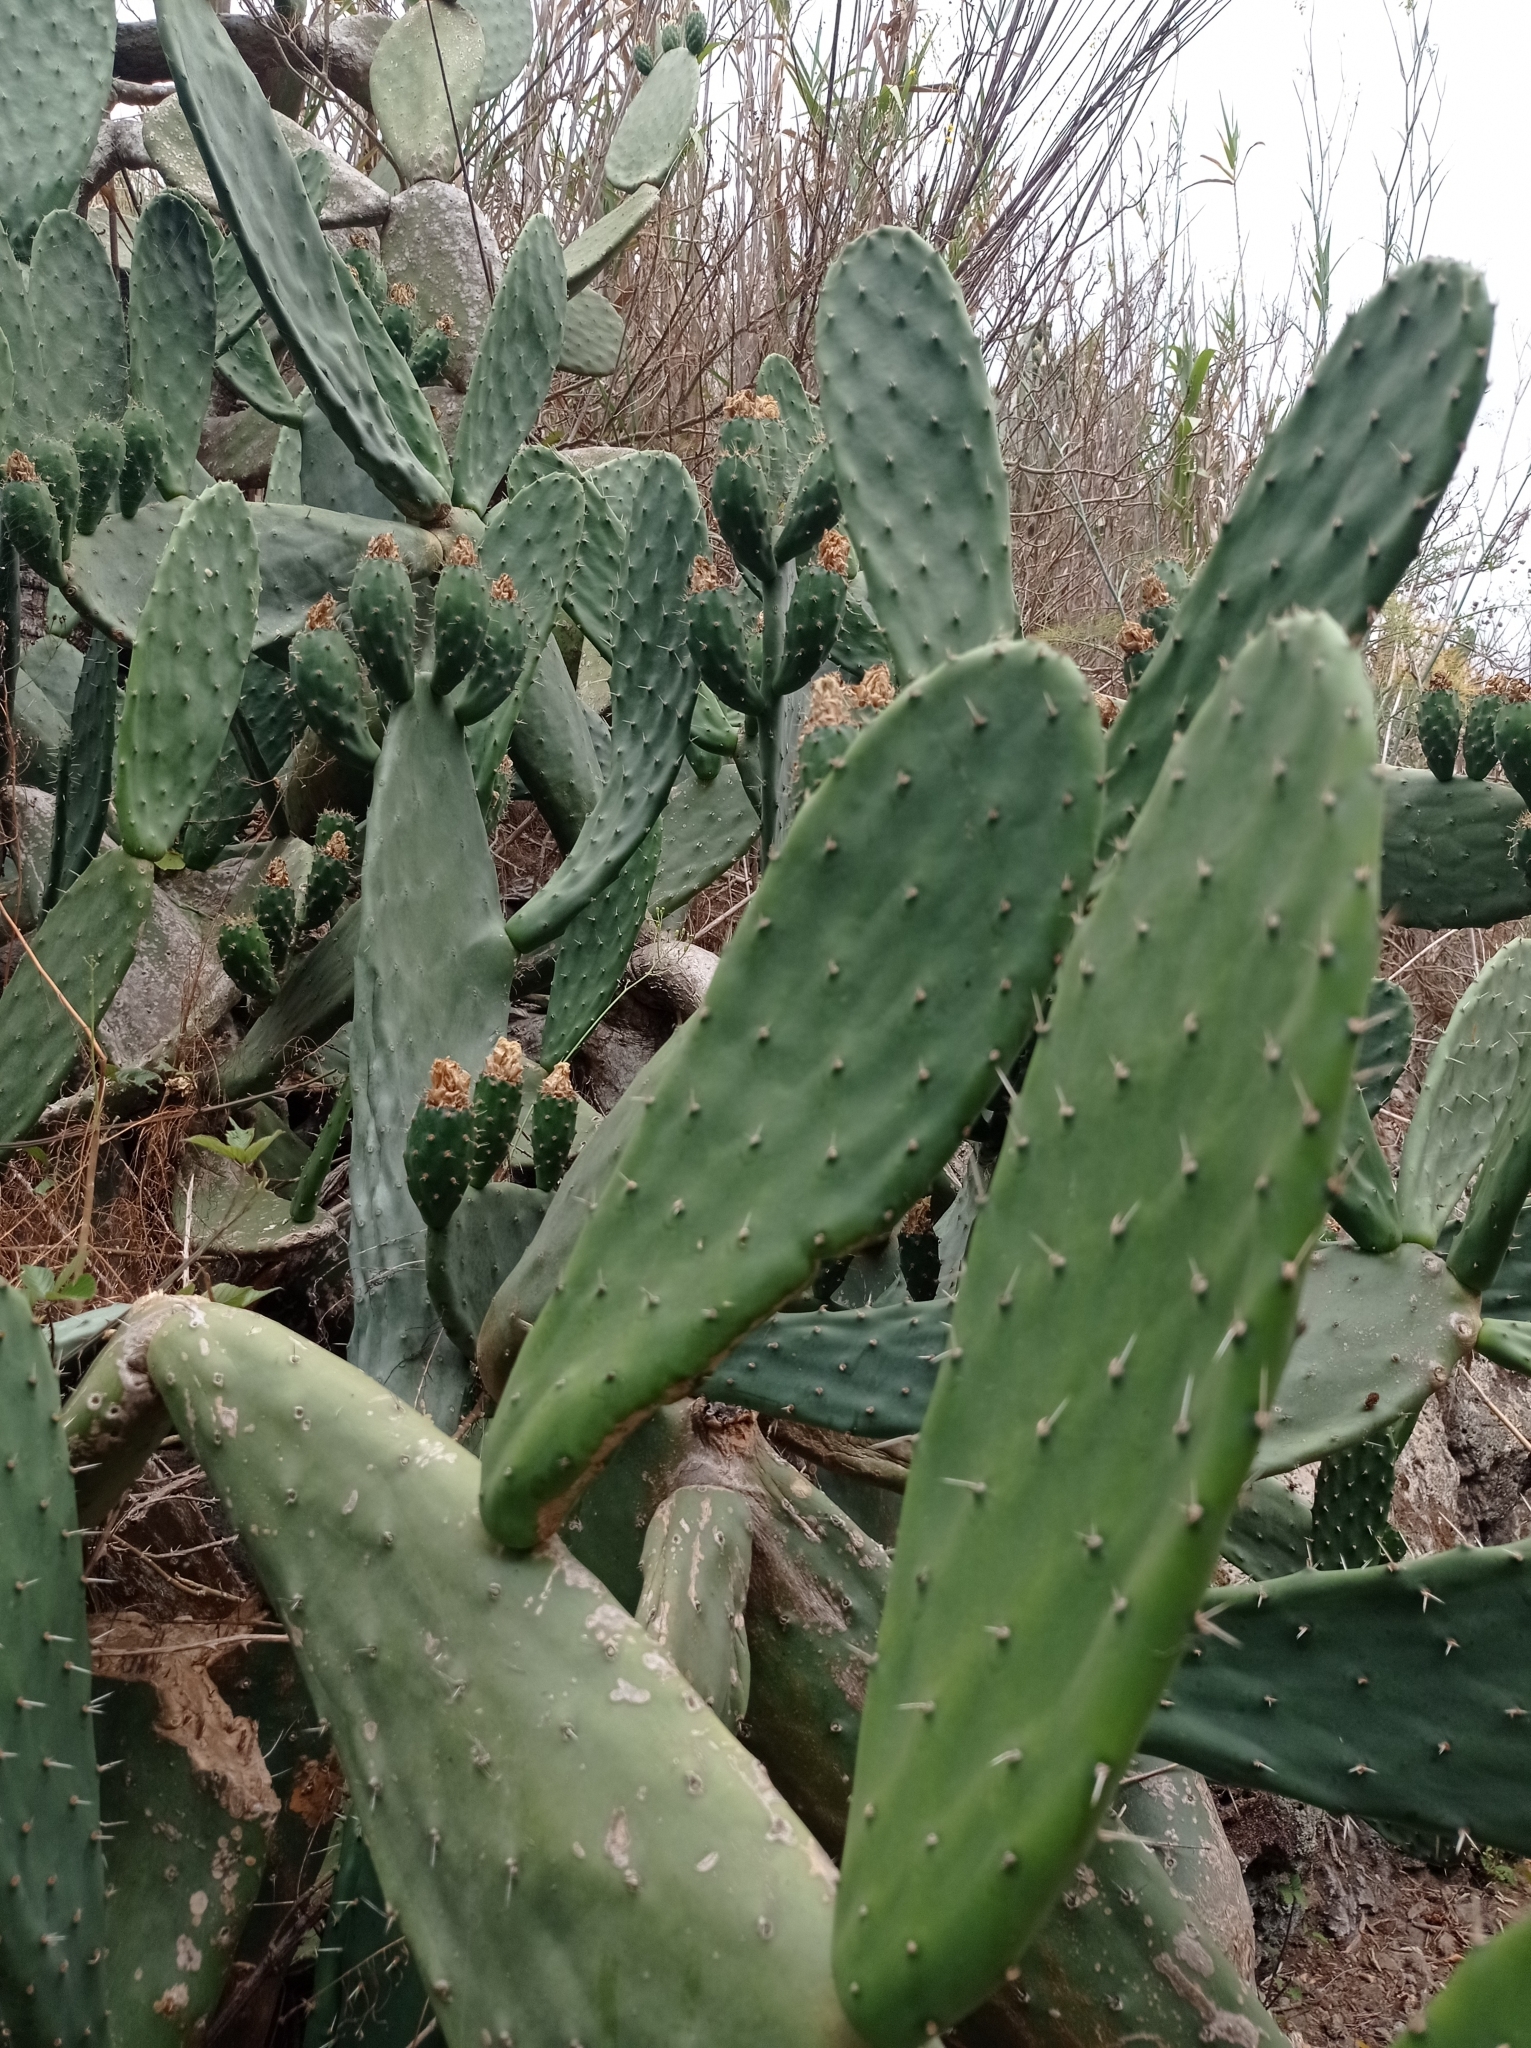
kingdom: Plantae
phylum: Tracheophyta
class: Magnoliopsida
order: Caryophyllales
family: Cactaceae
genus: Opuntia
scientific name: Opuntia ficus-indica
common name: Barbary fig
